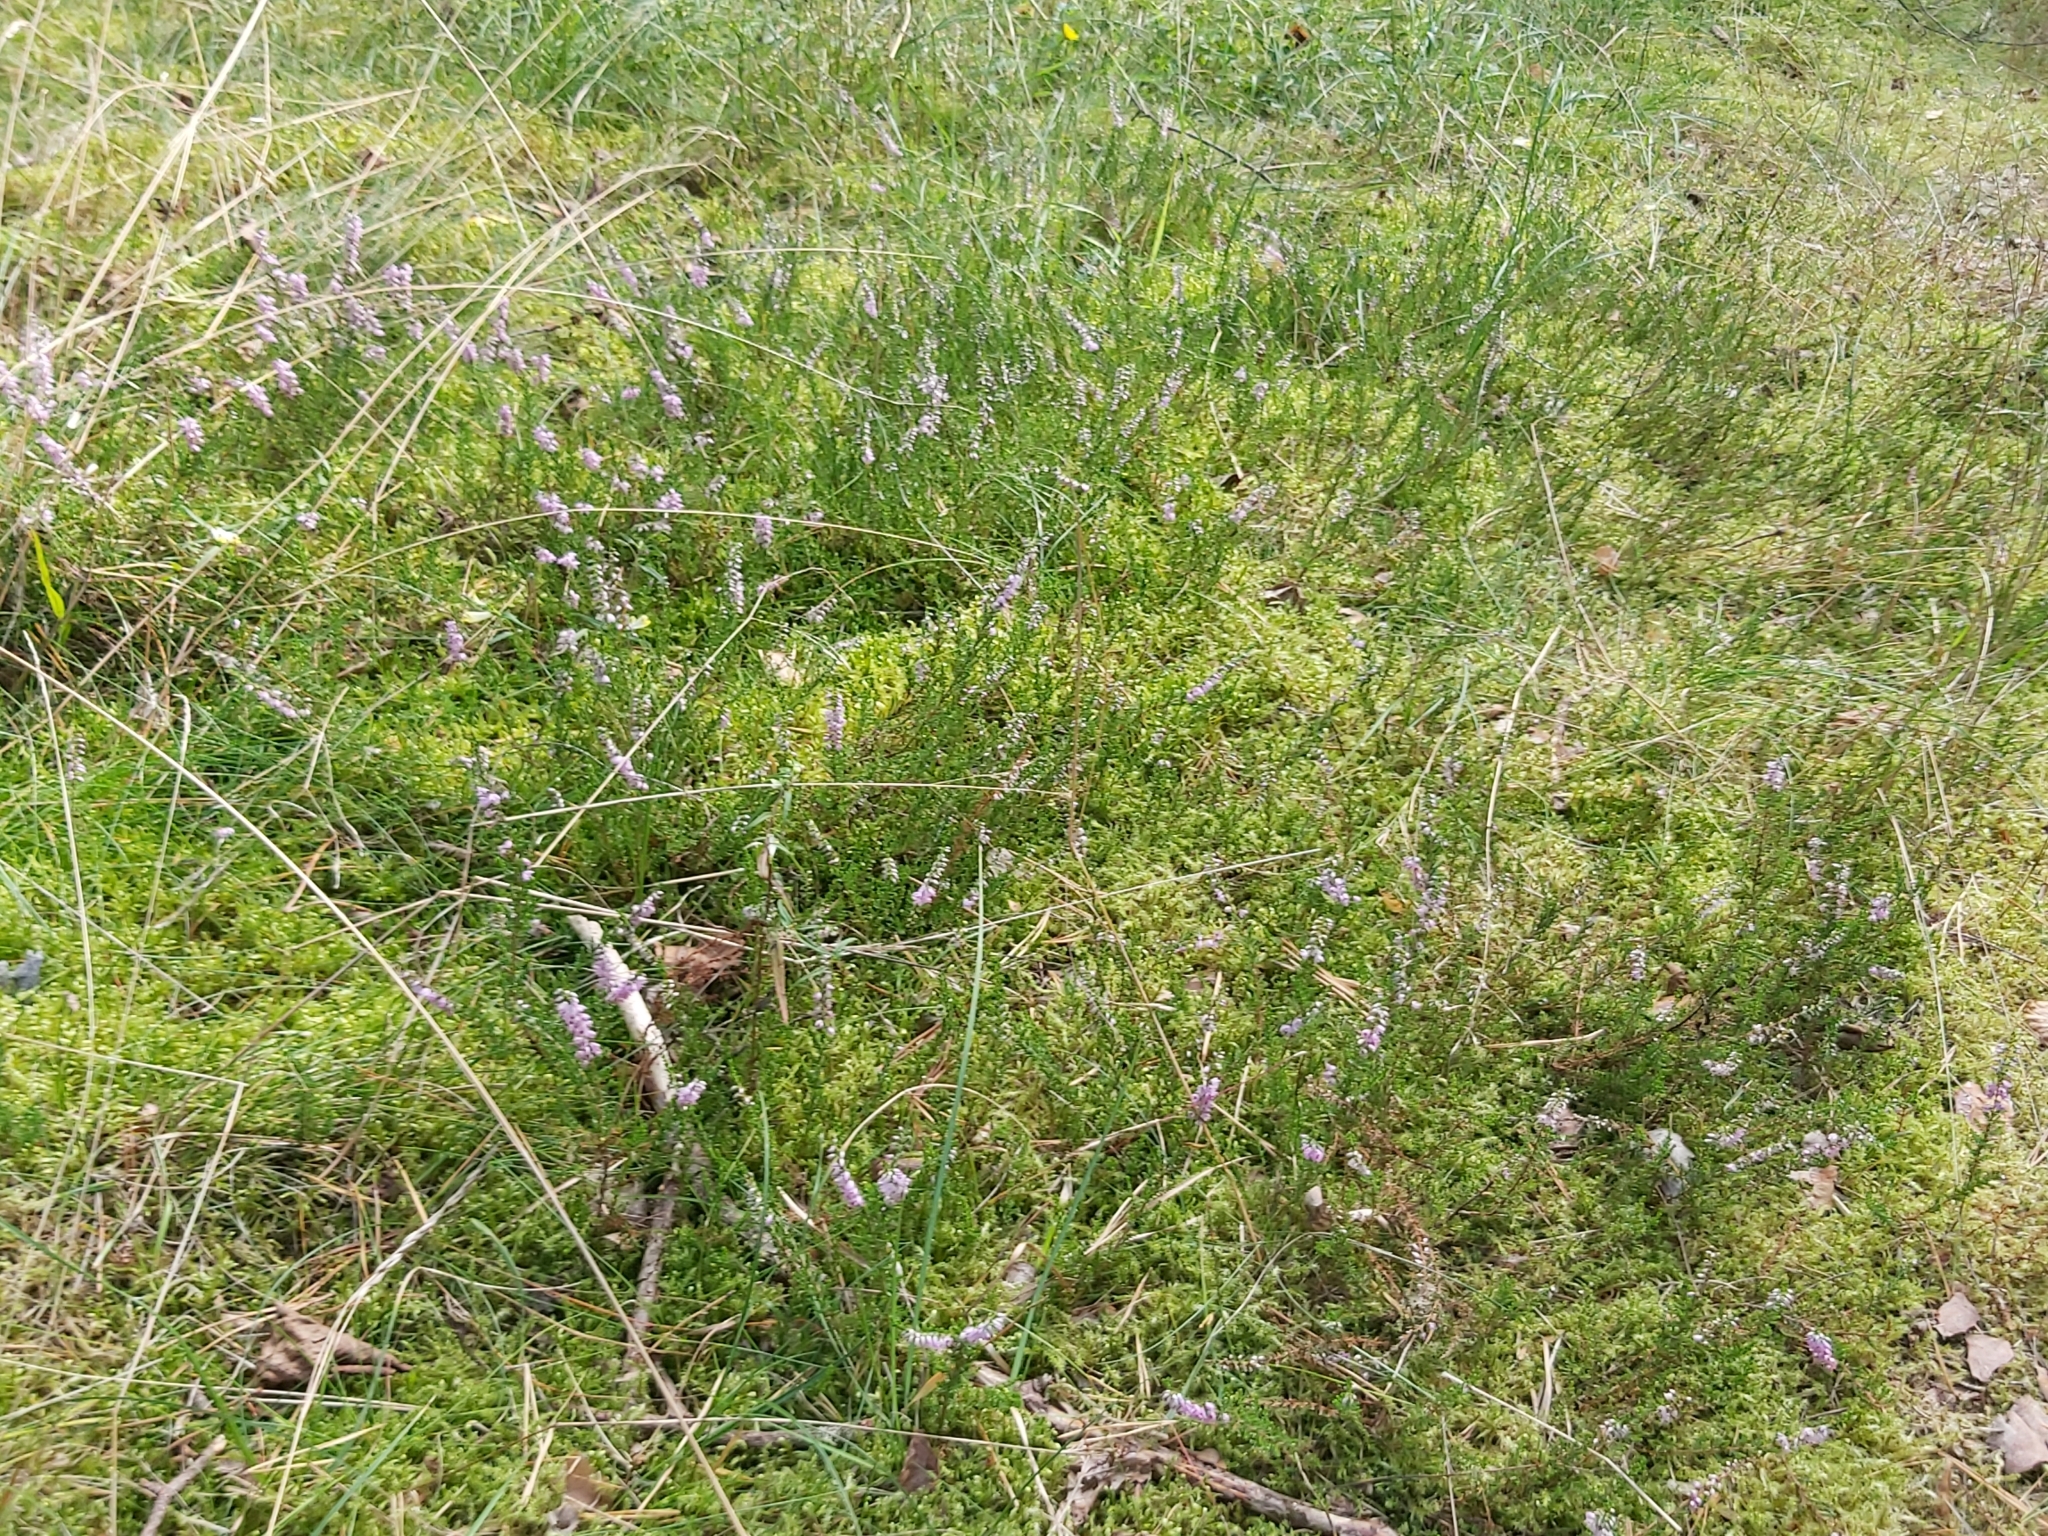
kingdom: Plantae
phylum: Tracheophyta
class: Magnoliopsida
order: Ericales
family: Ericaceae
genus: Calluna
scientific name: Calluna vulgaris
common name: Heather
